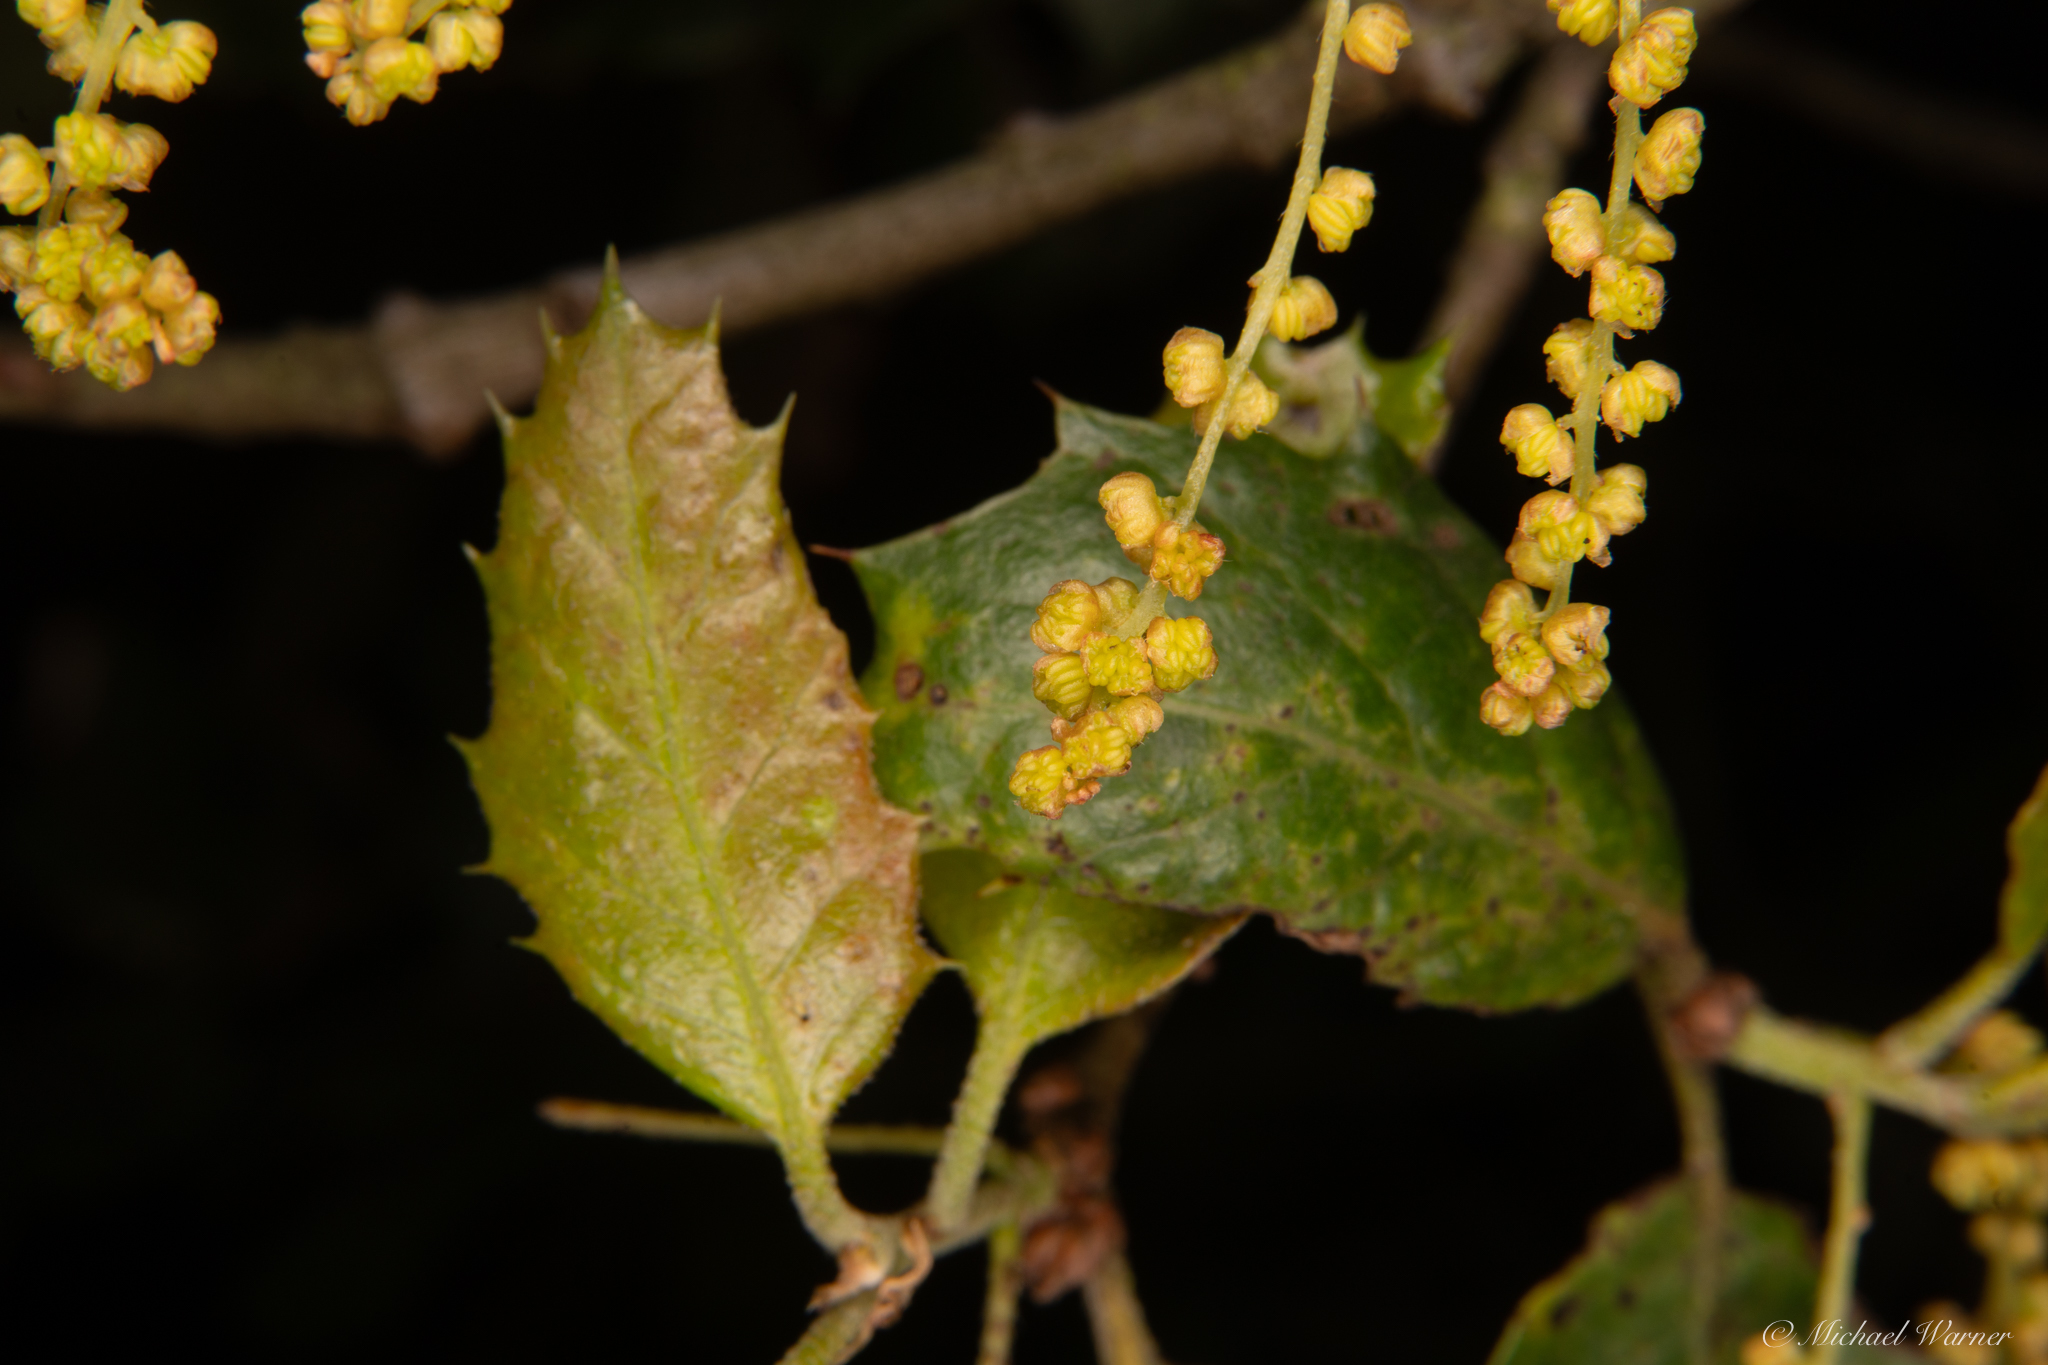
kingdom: Plantae
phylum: Tracheophyta
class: Magnoliopsida
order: Fagales
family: Fagaceae
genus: Quercus
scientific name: Quercus agrifolia
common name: California live oak
